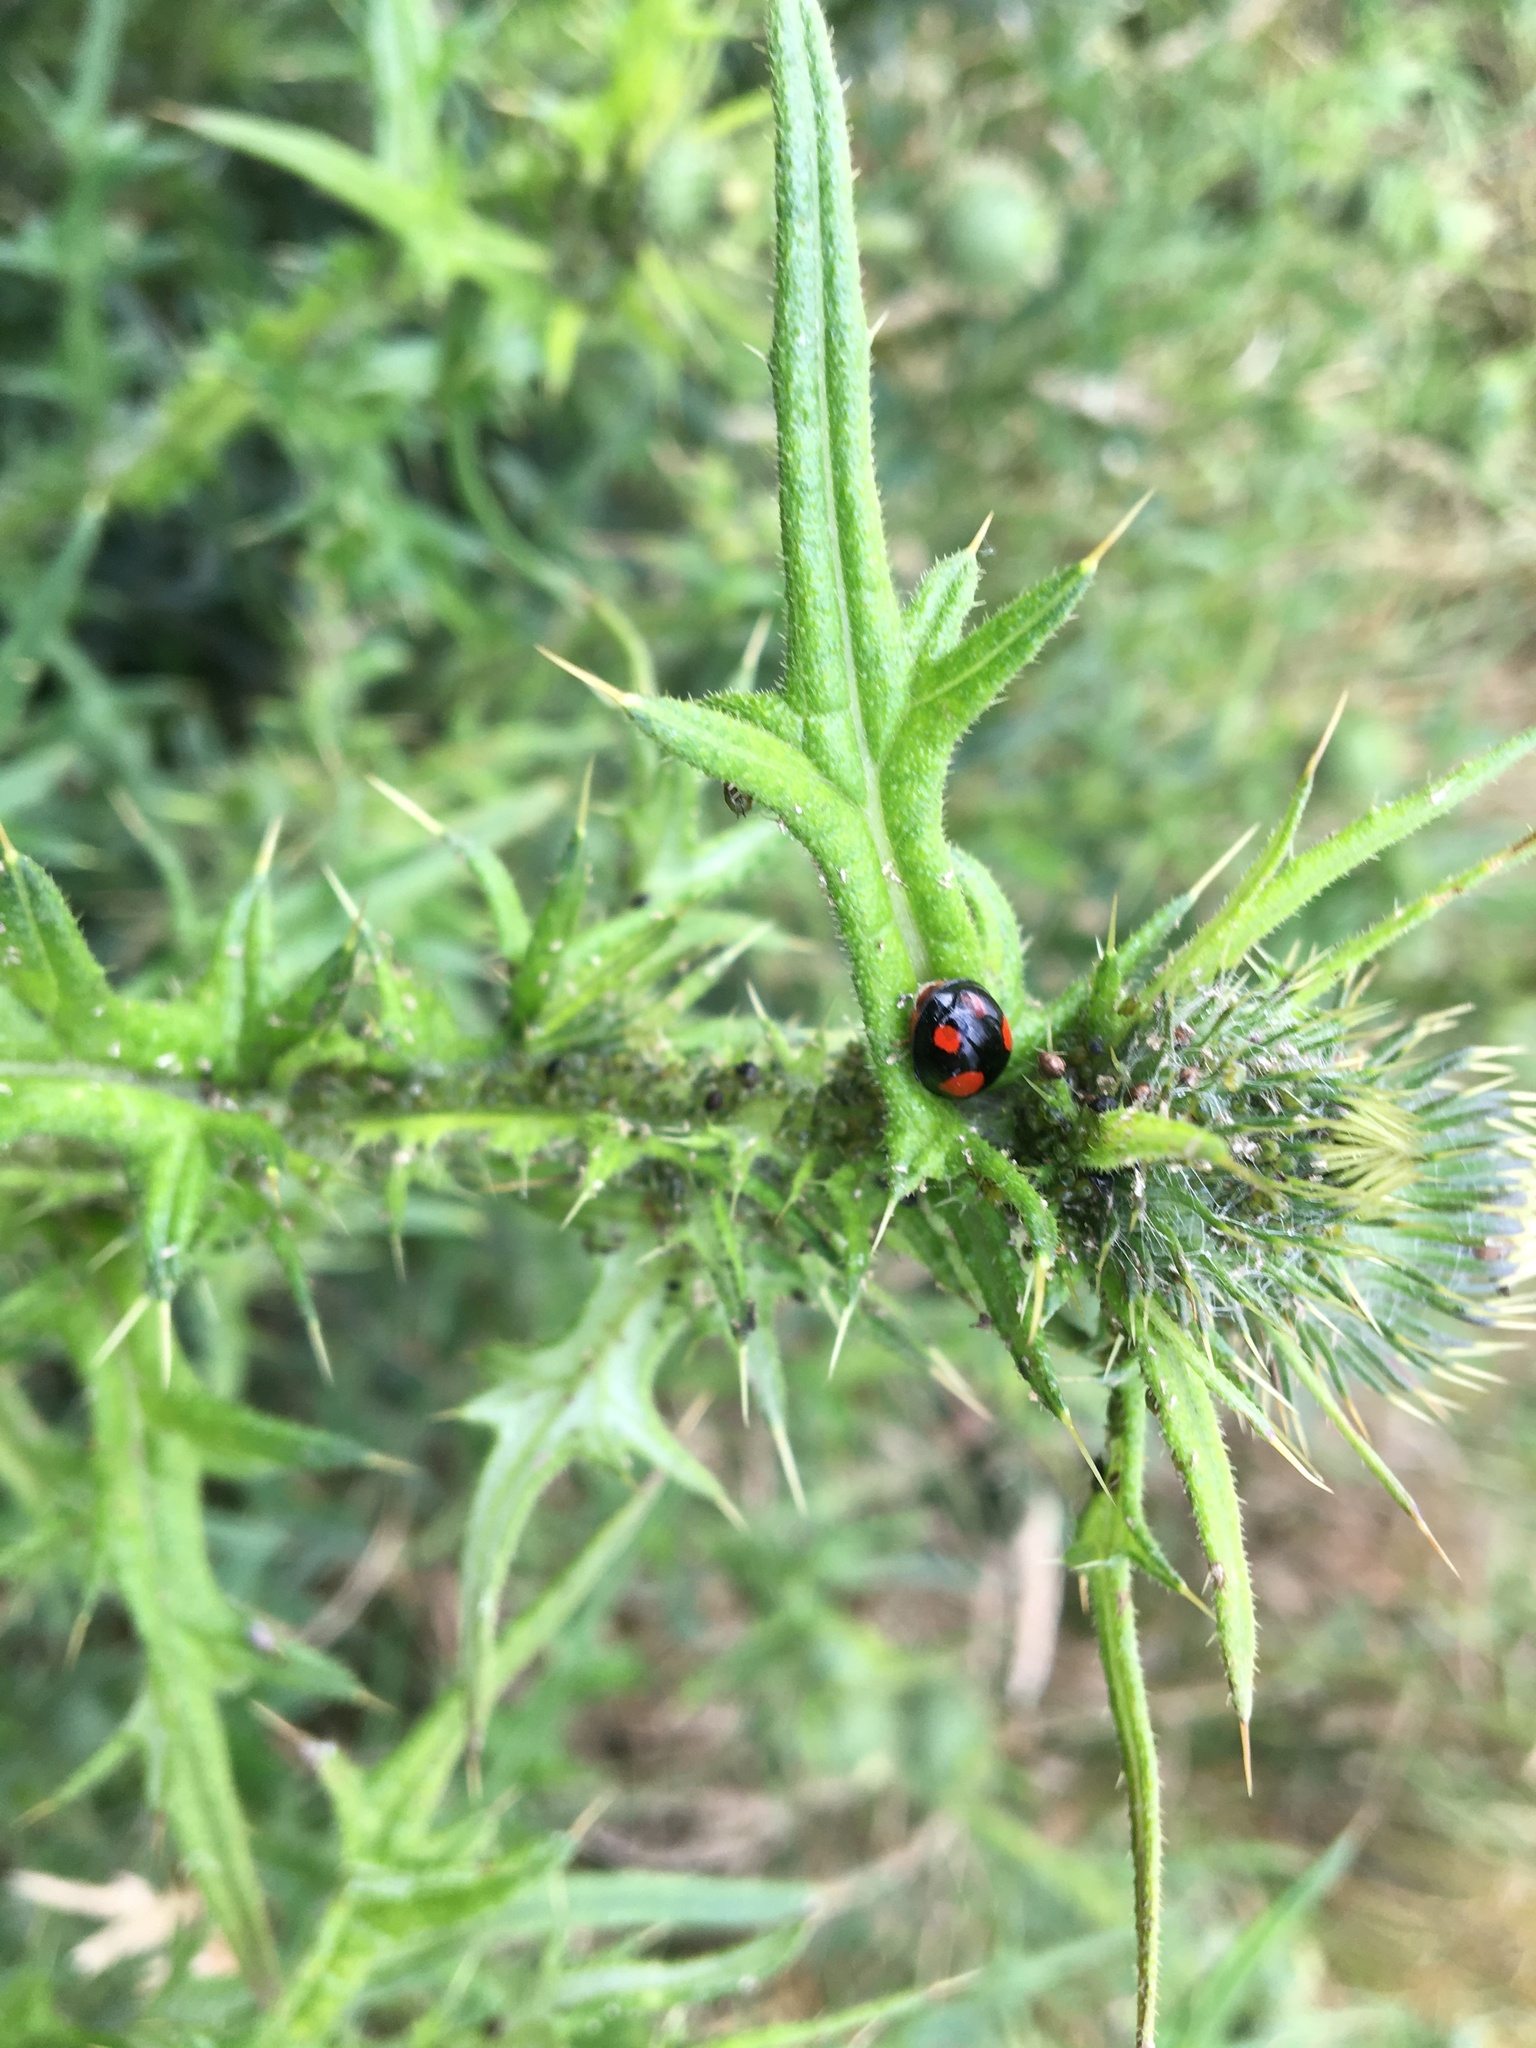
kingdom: Animalia
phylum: Arthropoda
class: Insecta
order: Coleoptera
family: Coccinellidae
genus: Harmonia
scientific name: Harmonia axyridis
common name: Harlequin ladybird
